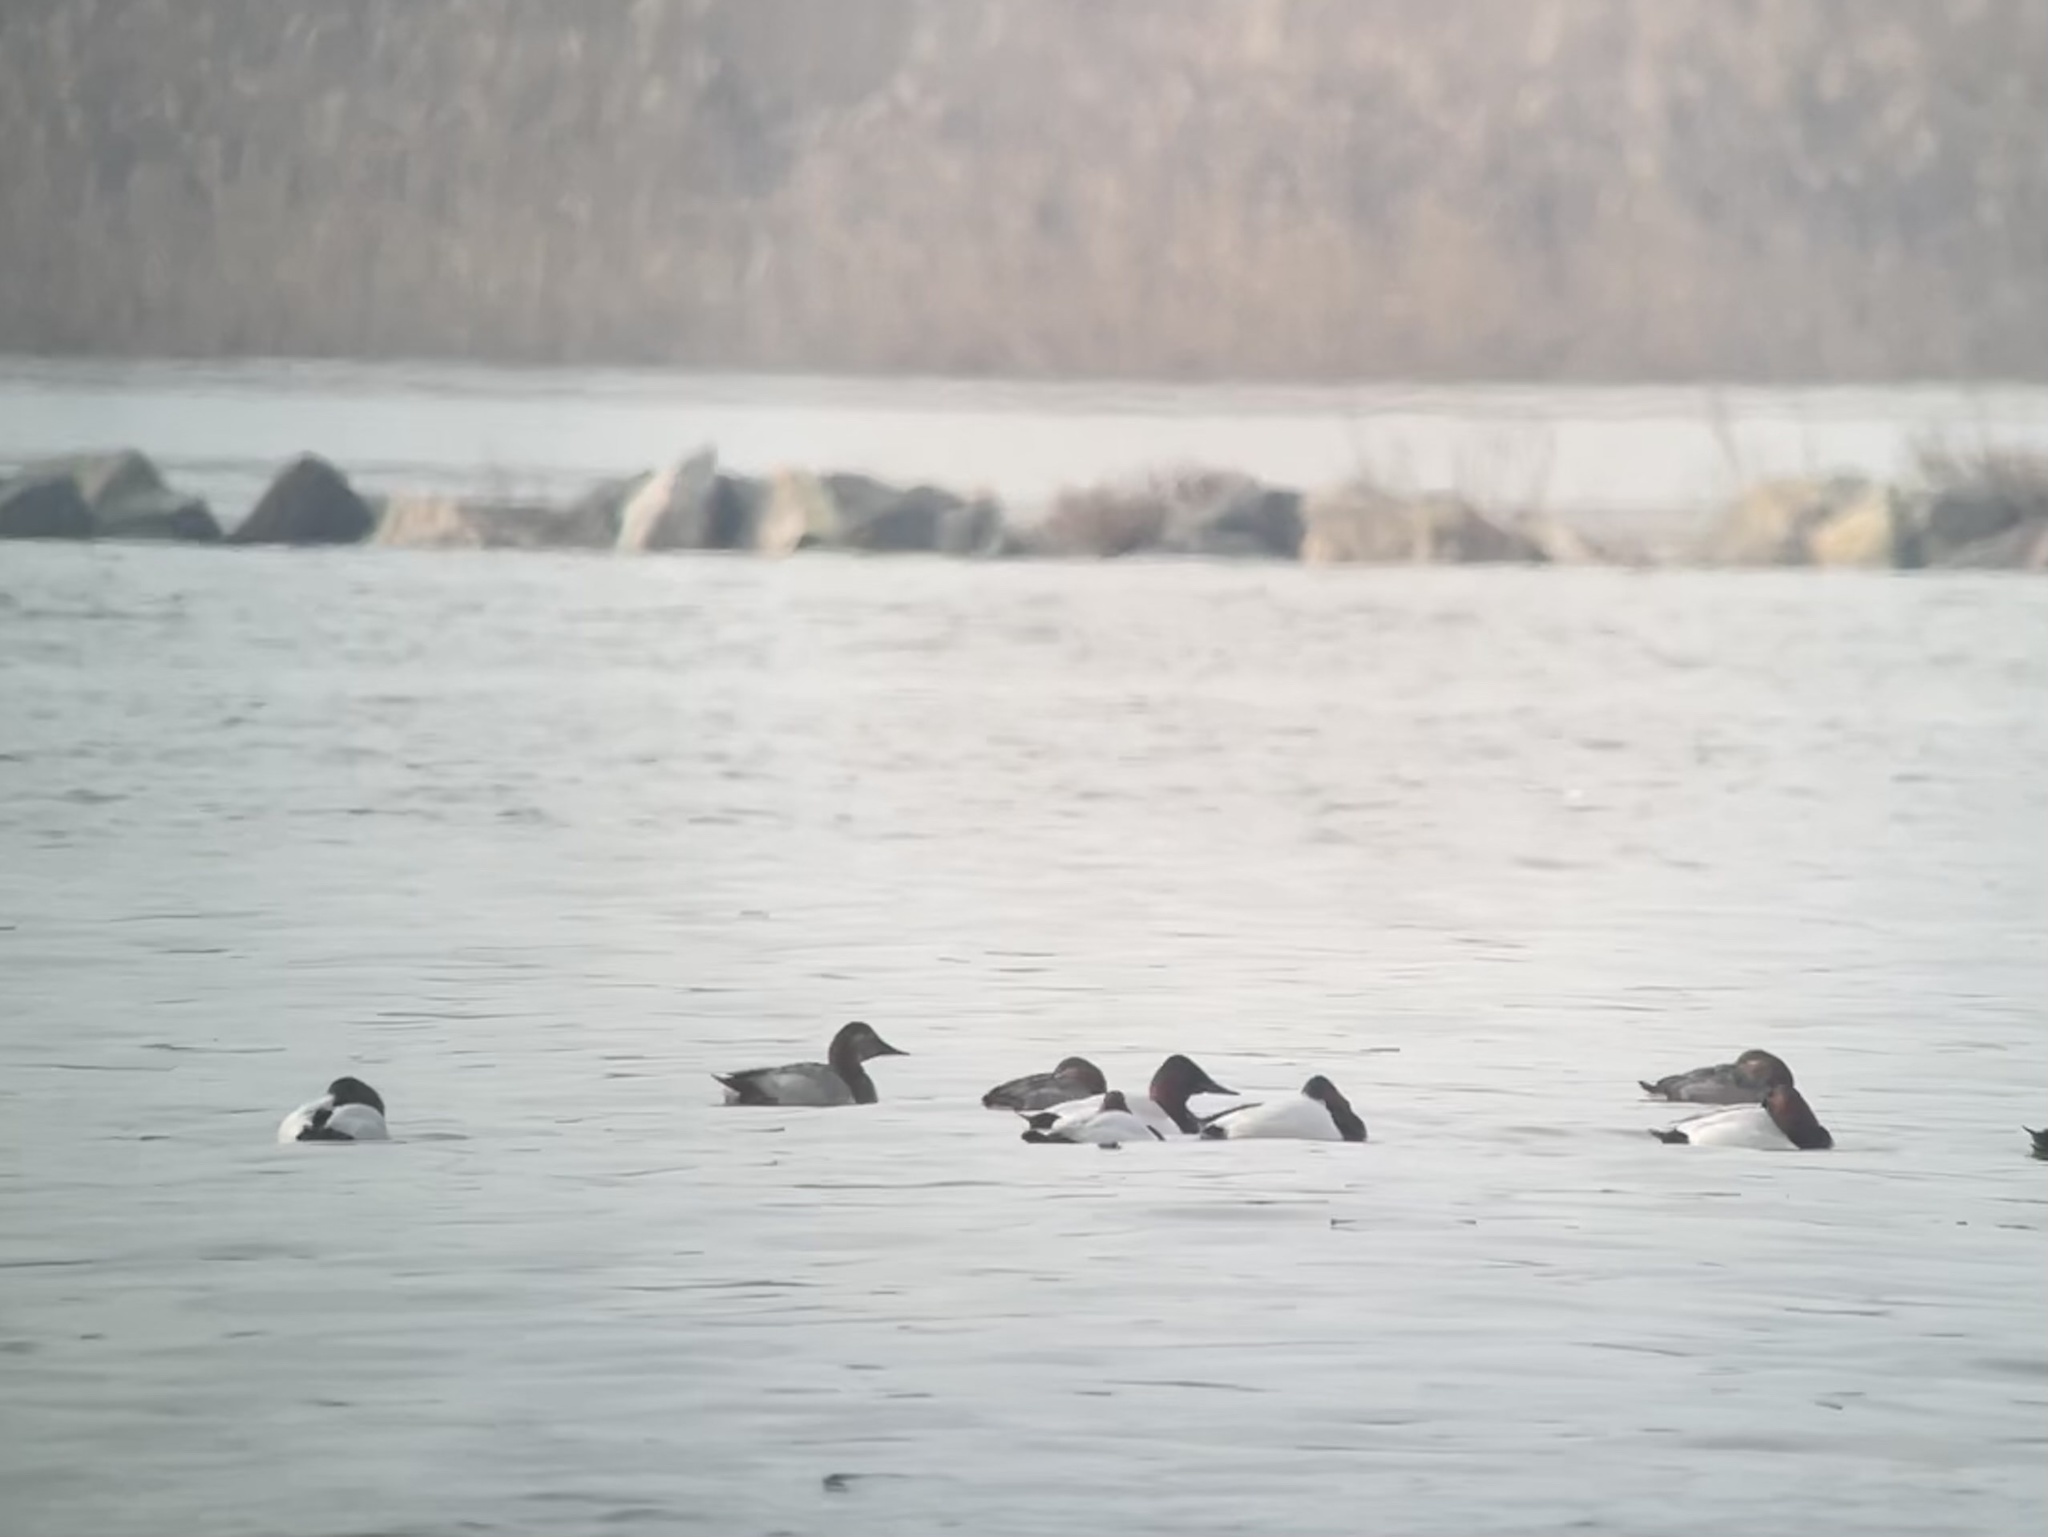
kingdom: Animalia
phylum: Chordata
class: Aves
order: Anseriformes
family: Anatidae
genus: Aythya
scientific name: Aythya valisineria
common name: Canvasback
